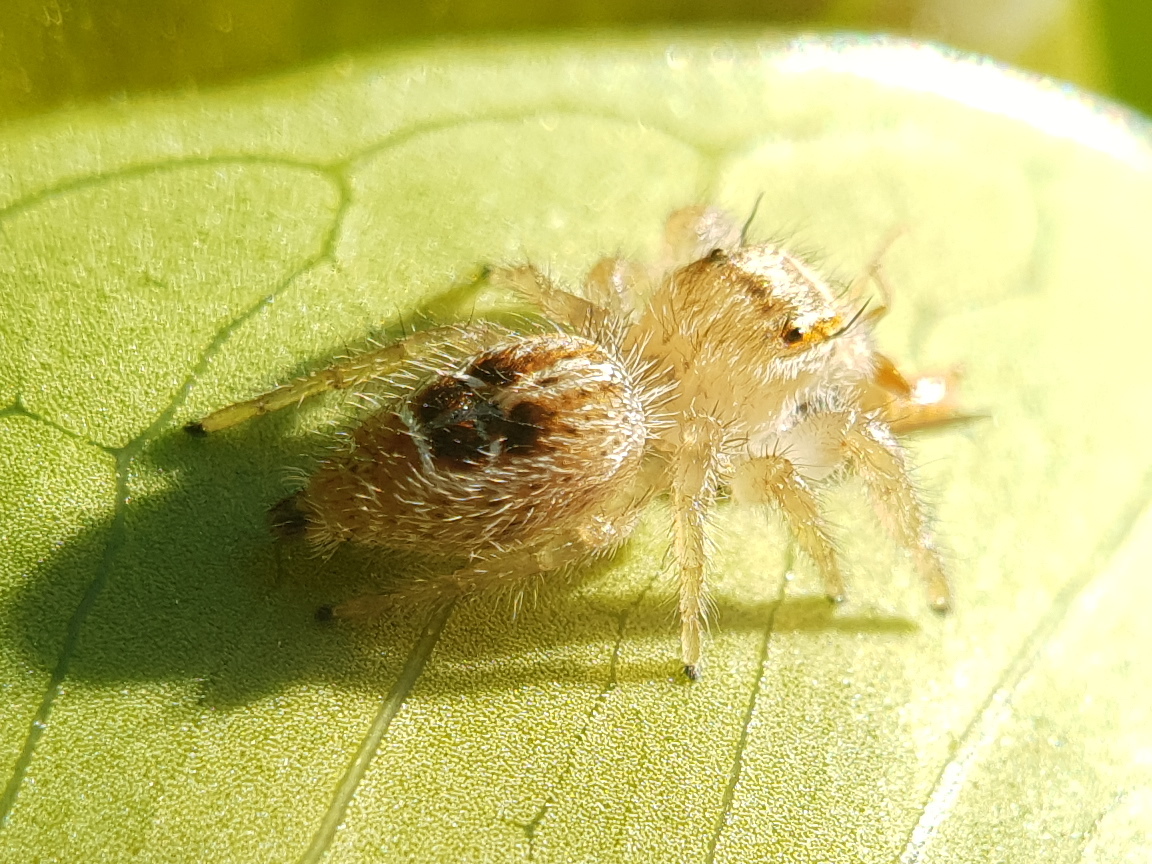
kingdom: Animalia
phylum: Arthropoda
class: Arachnida
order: Araneae
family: Salticidae
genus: Thyene
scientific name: Thyene imperialis
